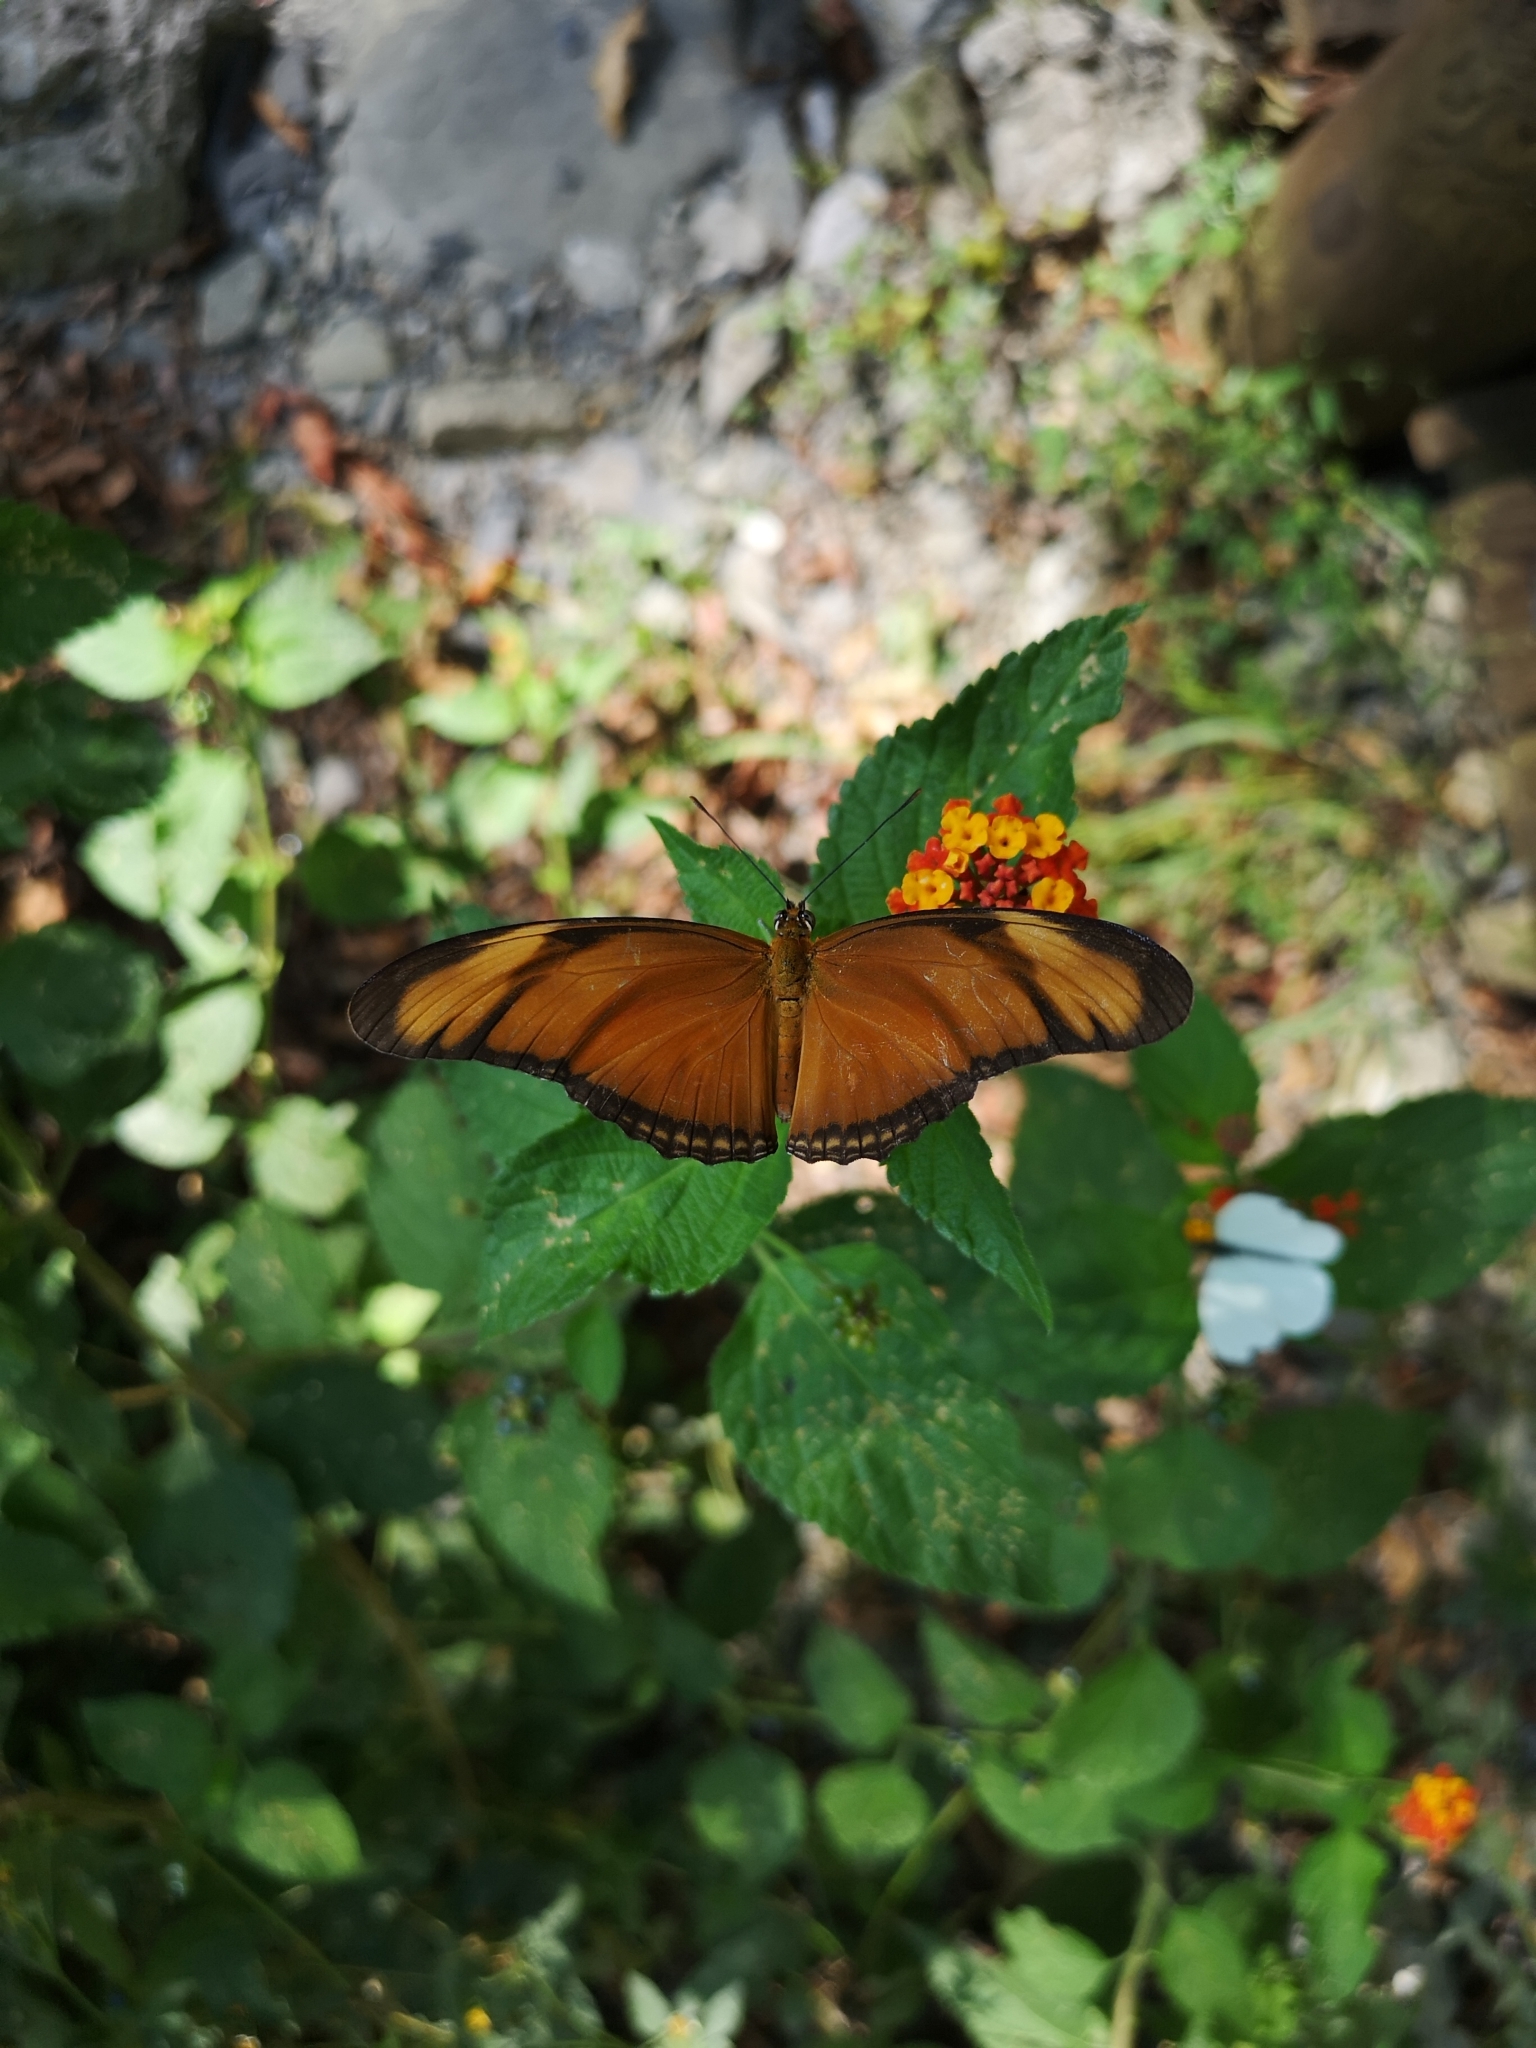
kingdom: Animalia
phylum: Arthropoda
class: Insecta
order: Lepidoptera
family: Nymphalidae
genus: Dryas
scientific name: Dryas iulia
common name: Flambeau
